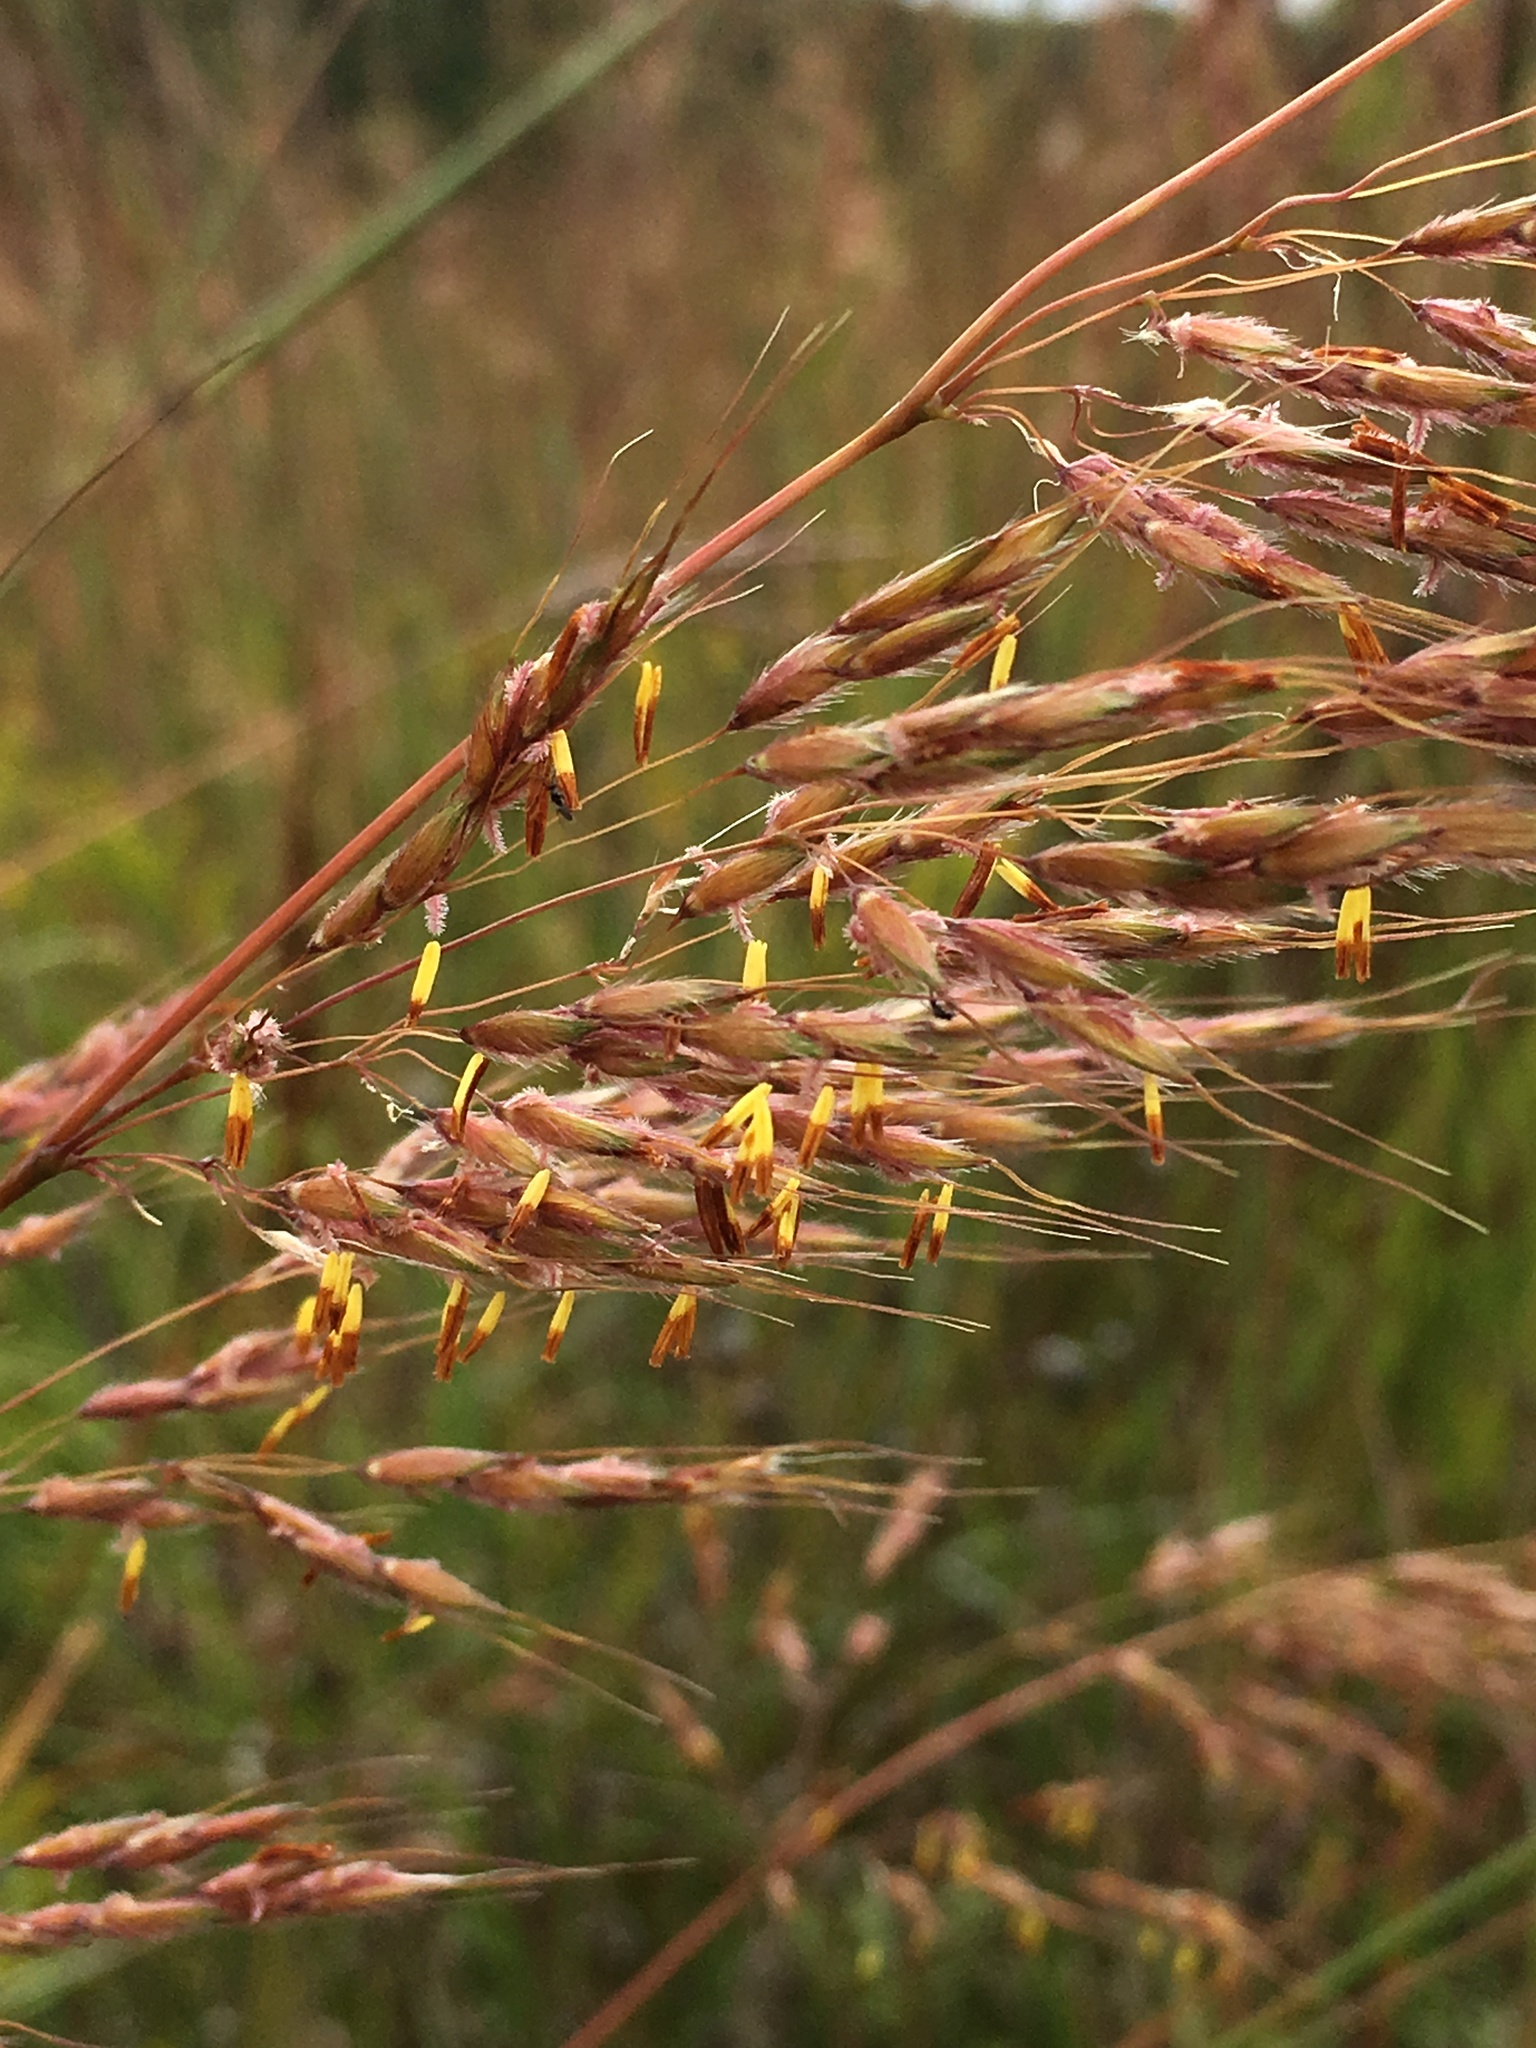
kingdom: Plantae
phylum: Tracheophyta
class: Liliopsida
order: Poales
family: Poaceae
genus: Sorghastrum
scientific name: Sorghastrum nutans
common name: Indian grass
